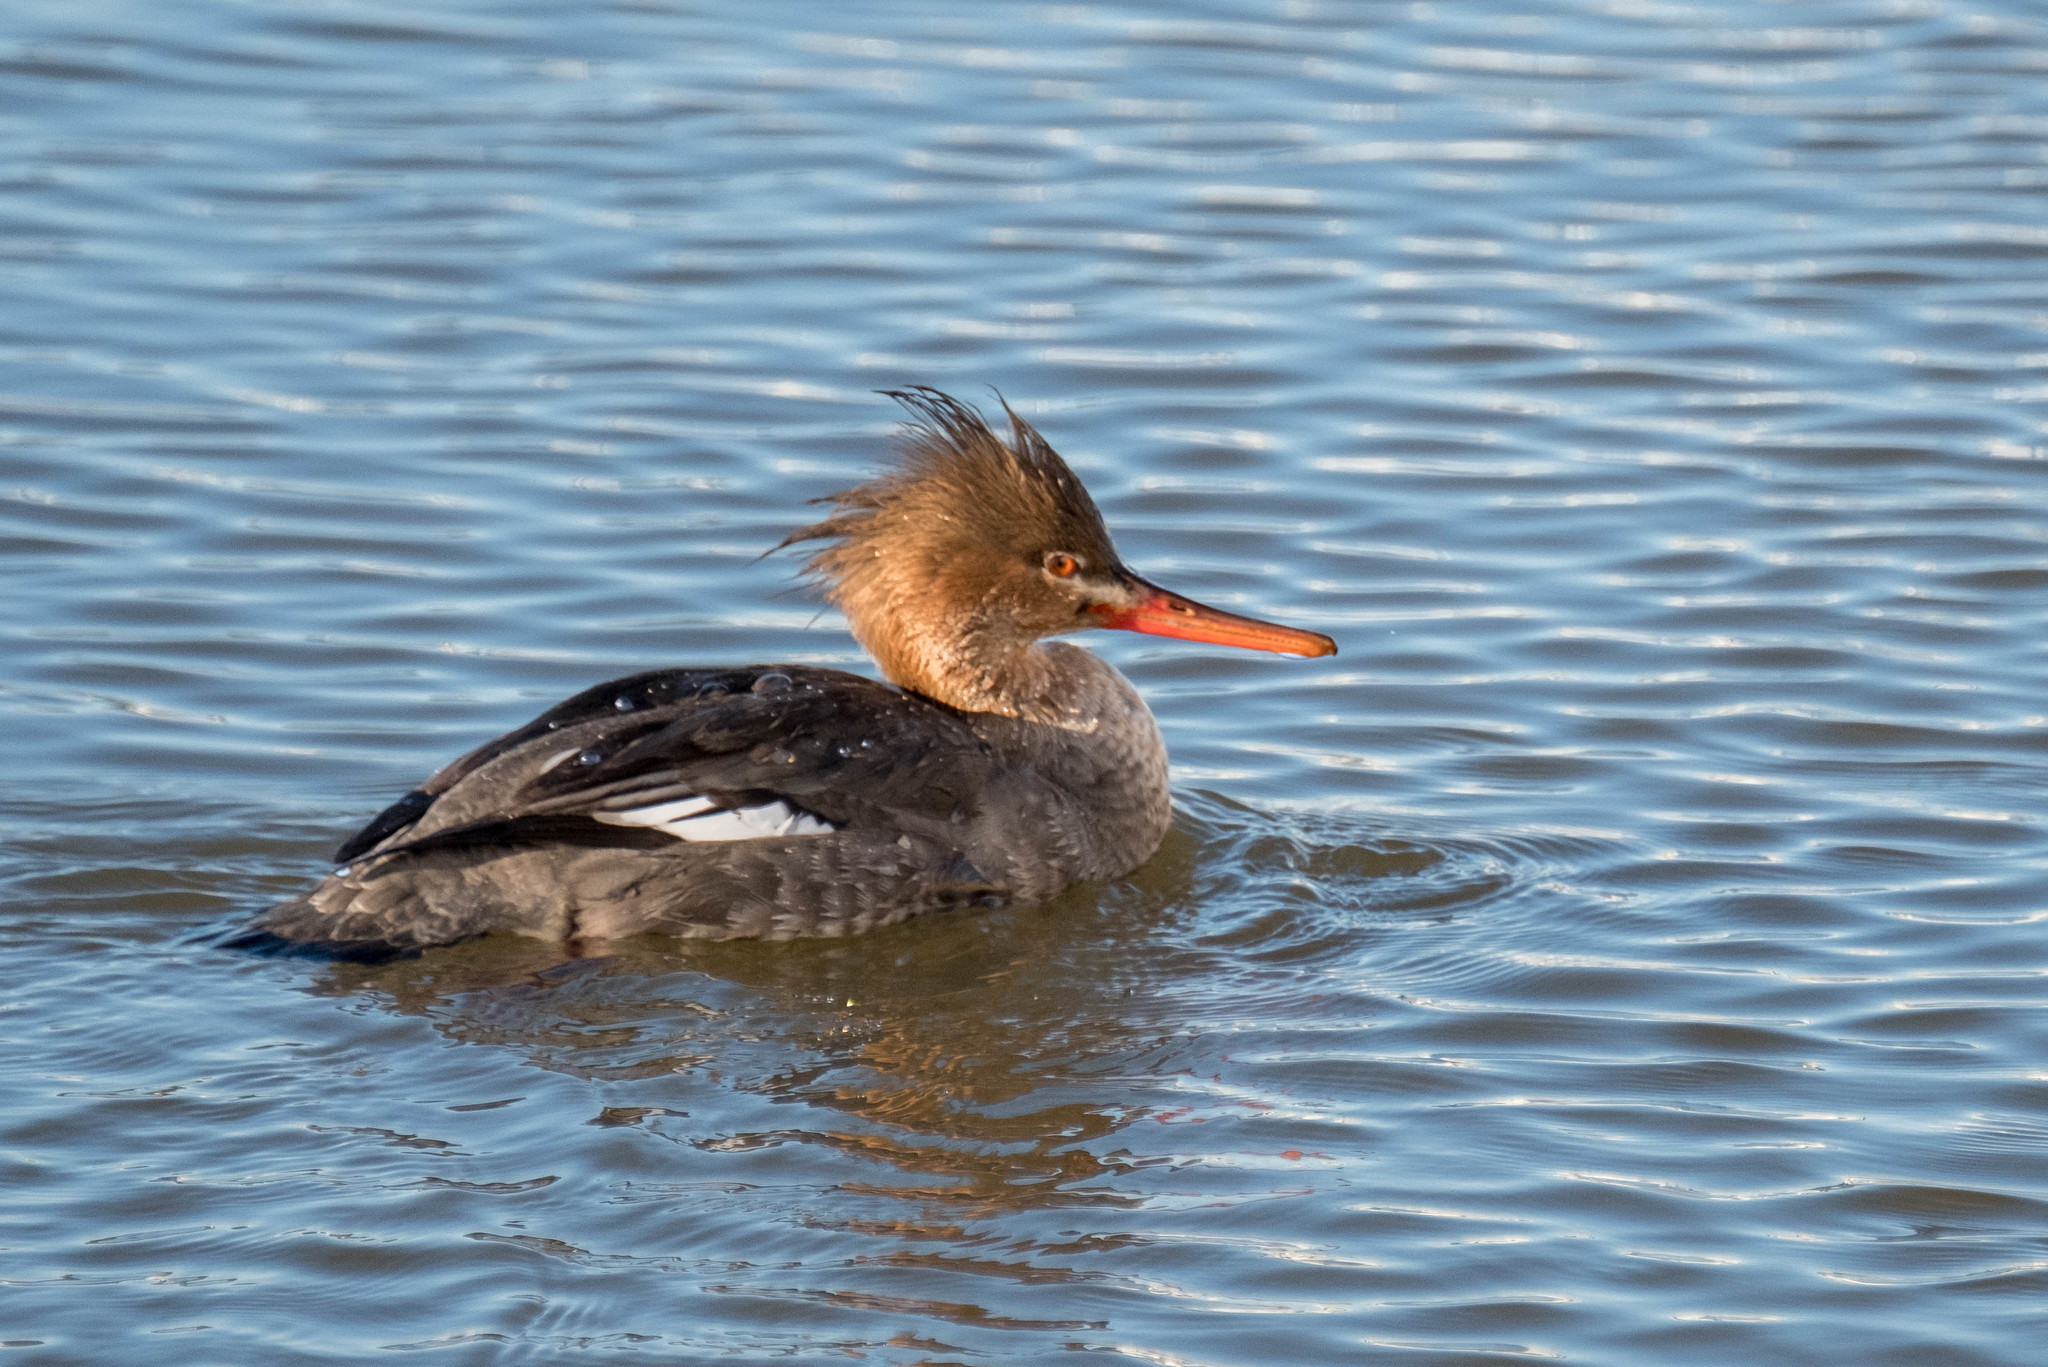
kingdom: Animalia
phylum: Chordata
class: Aves
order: Anseriformes
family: Anatidae
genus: Mergus
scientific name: Mergus serrator
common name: Red-breasted merganser
